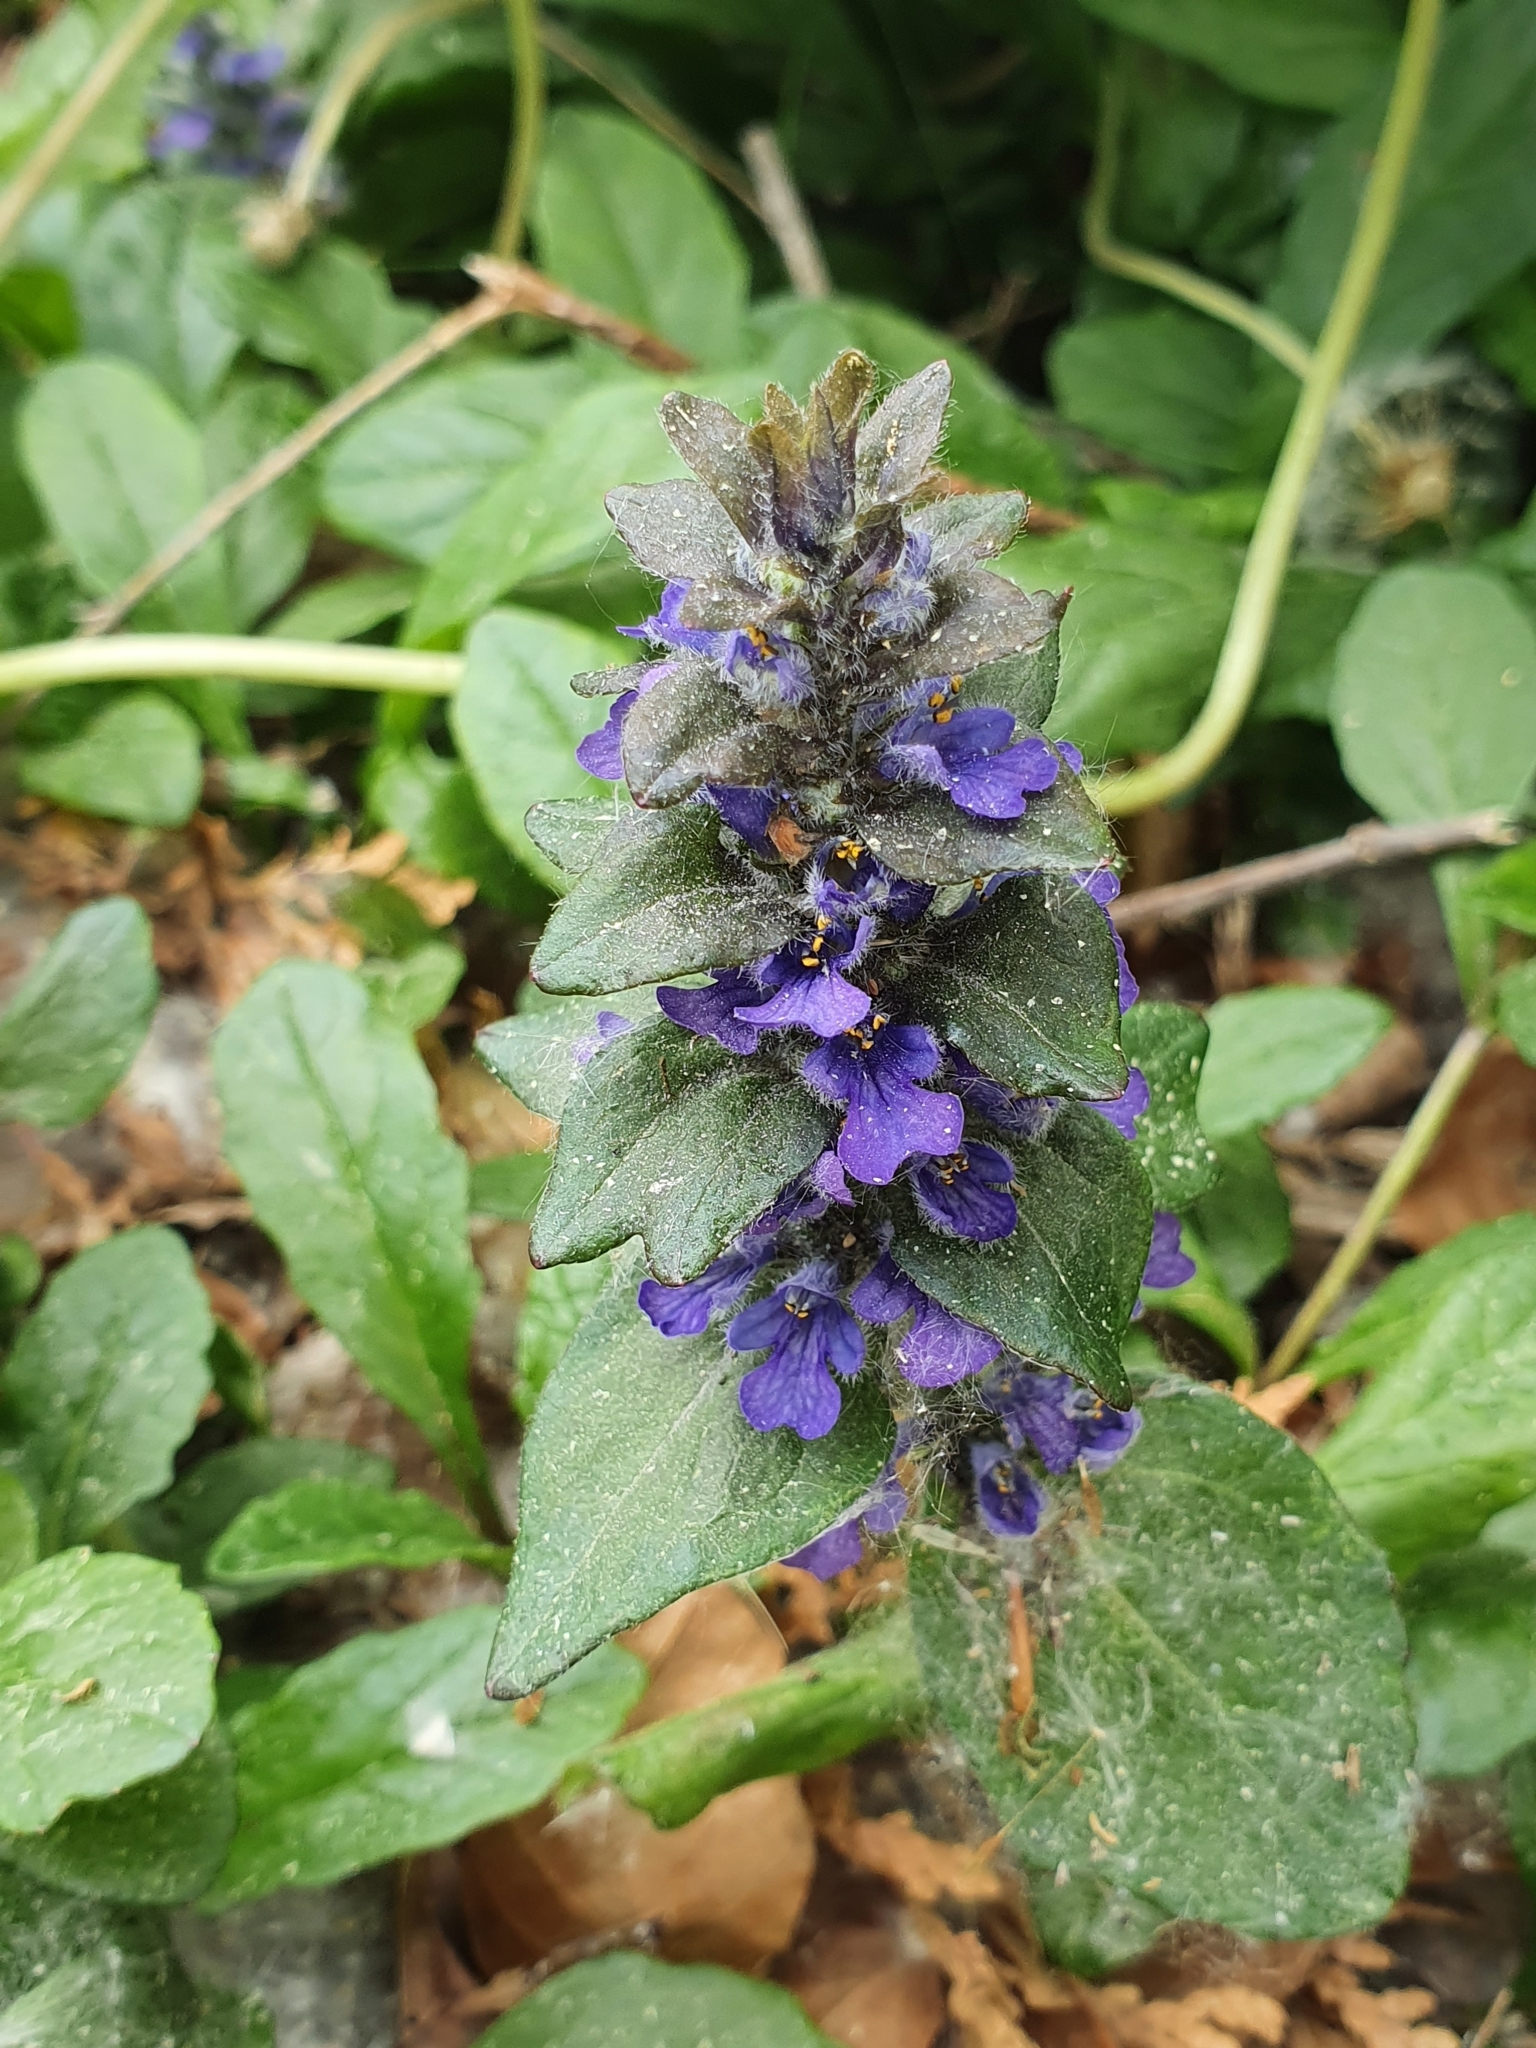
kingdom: Plantae
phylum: Tracheophyta
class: Magnoliopsida
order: Lamiales
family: Lamiaceae
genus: Ajuga
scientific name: Ajuga pyramidalis
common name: Pyramid bugle
